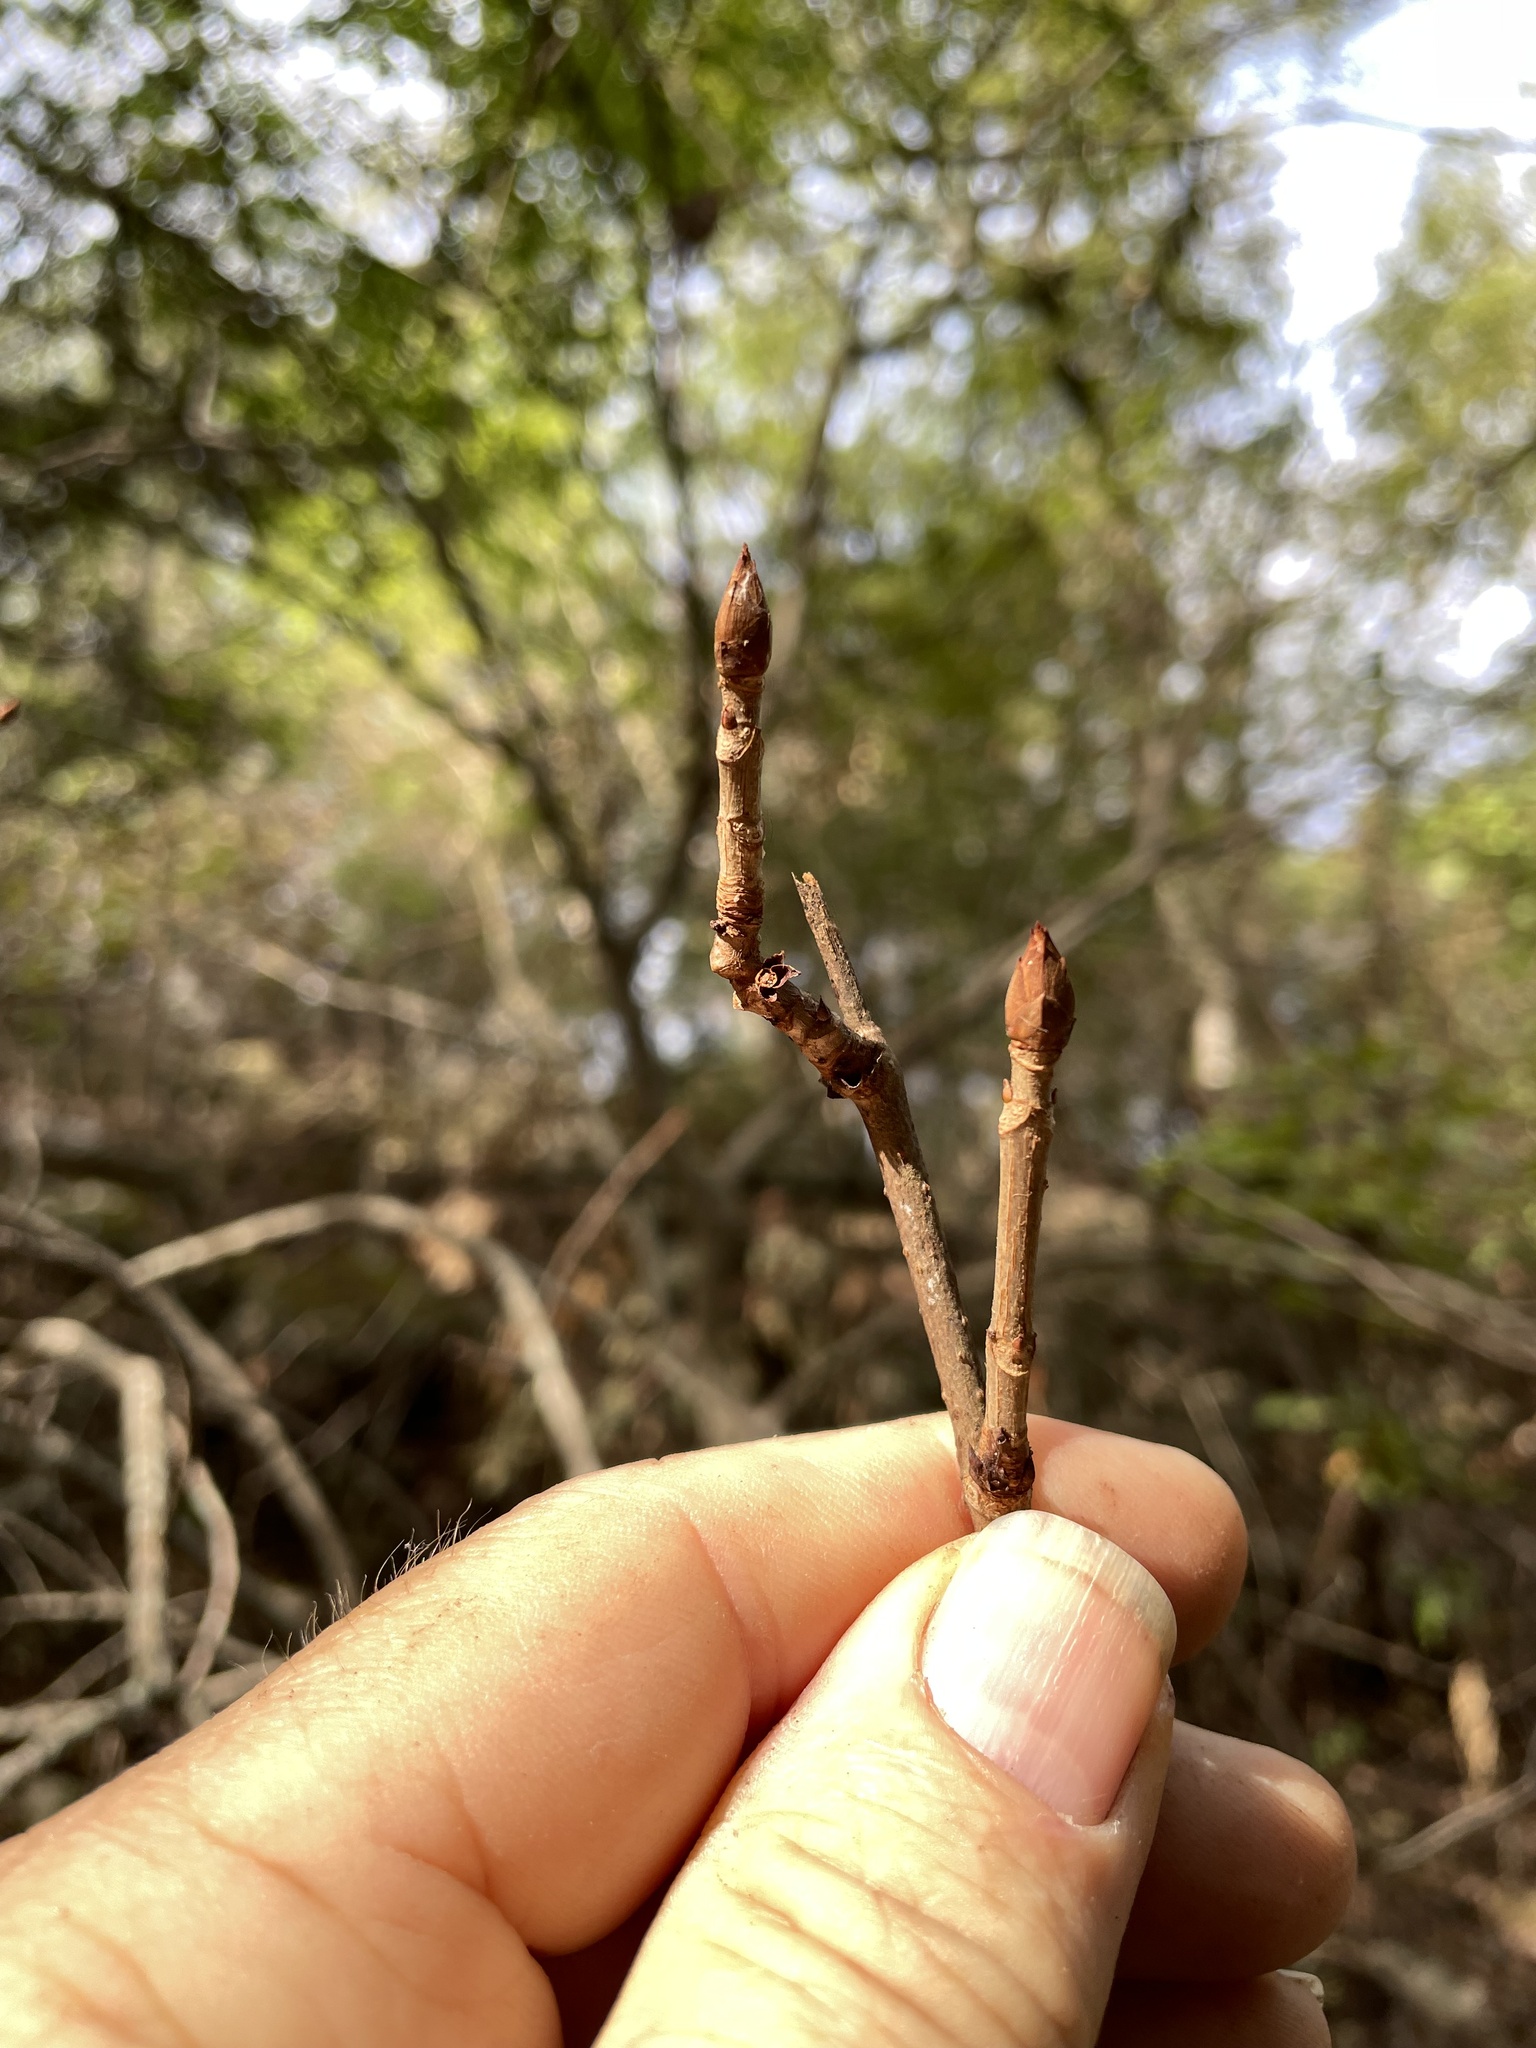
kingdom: Plantae
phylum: Tracheophyta
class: Magnoliopsida
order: Sapindales
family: Sapindaceae
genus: Aesculus
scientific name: Aesculus glabra
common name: Ohio buckeye
